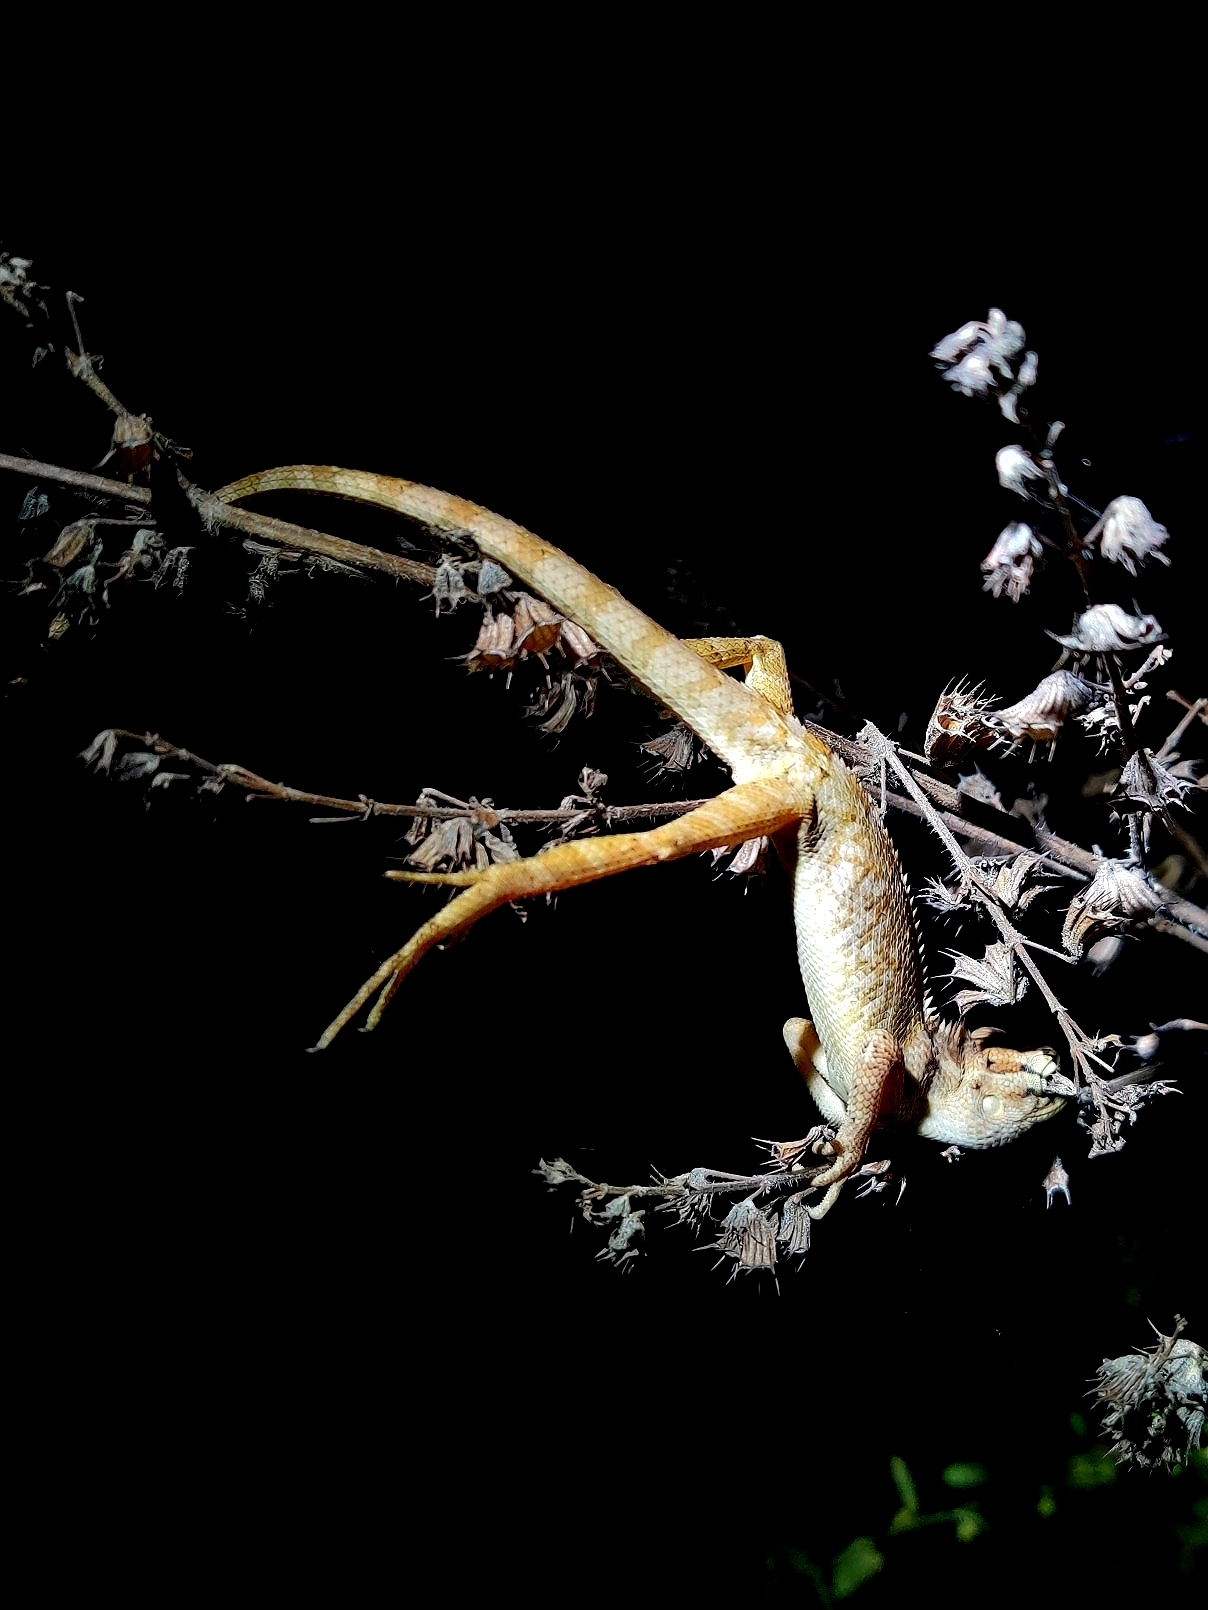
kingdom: Animalia
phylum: Chordata
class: Squamata
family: Agamidae
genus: Calotes
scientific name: Calotes versicolor
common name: Oriental garden lizard
